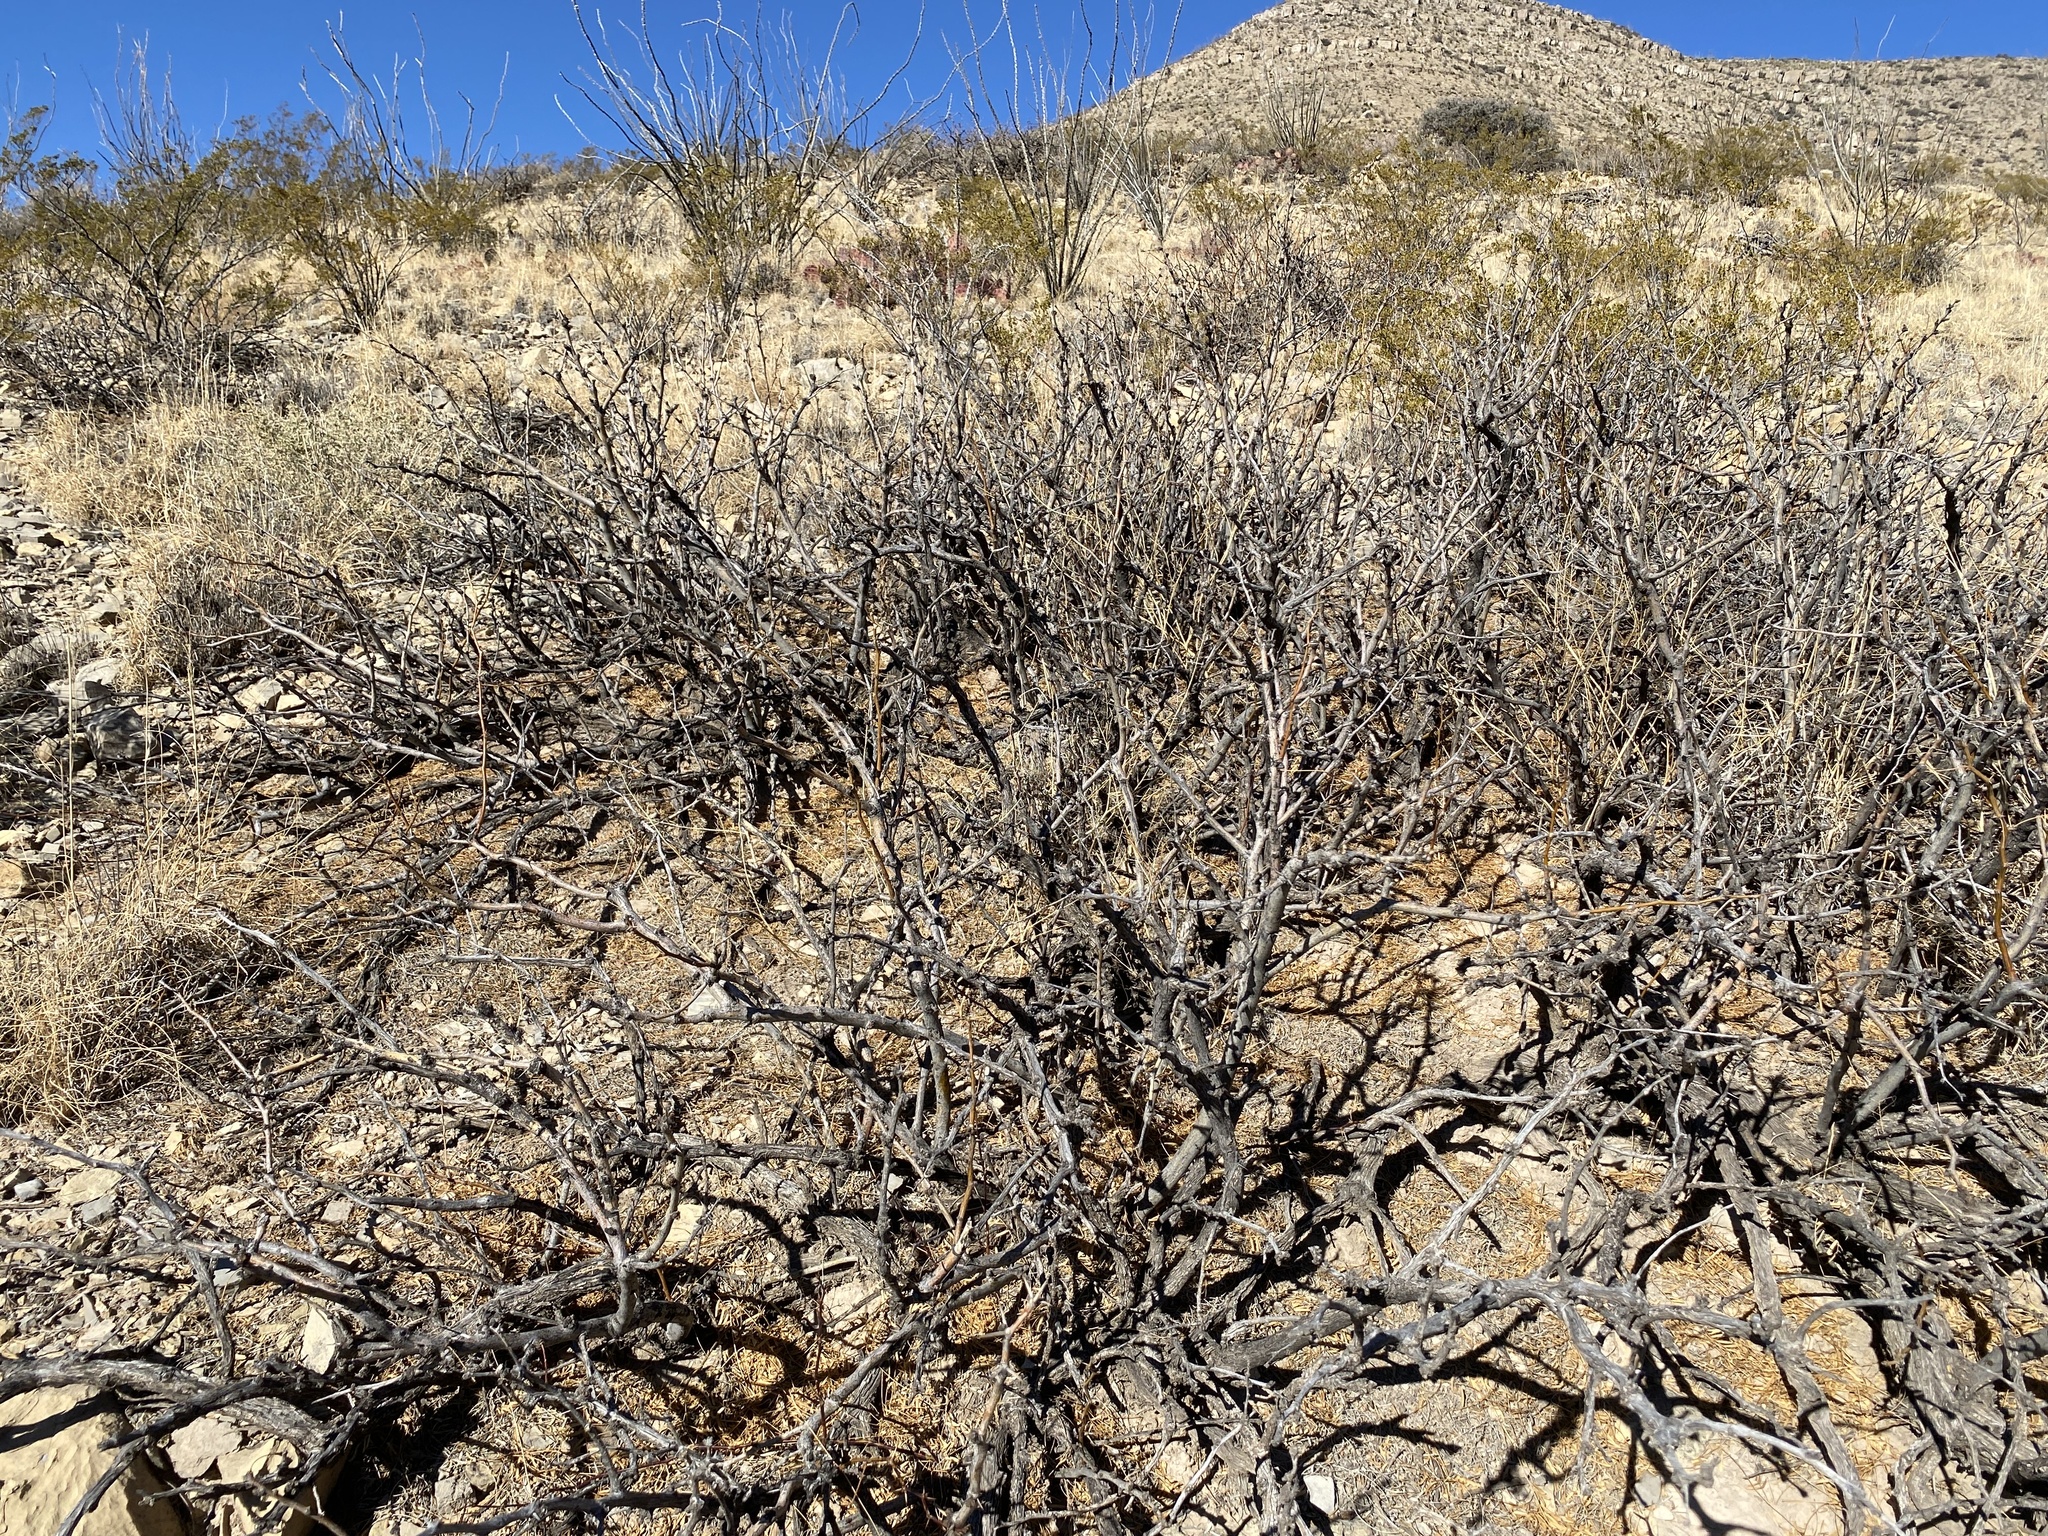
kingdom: Plantae
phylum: Tracheophyta
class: Magnoliopsida
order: Fabales
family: Fabaceae
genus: Prosopis
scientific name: Prosopis glandulosa
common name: Honey mesquite
